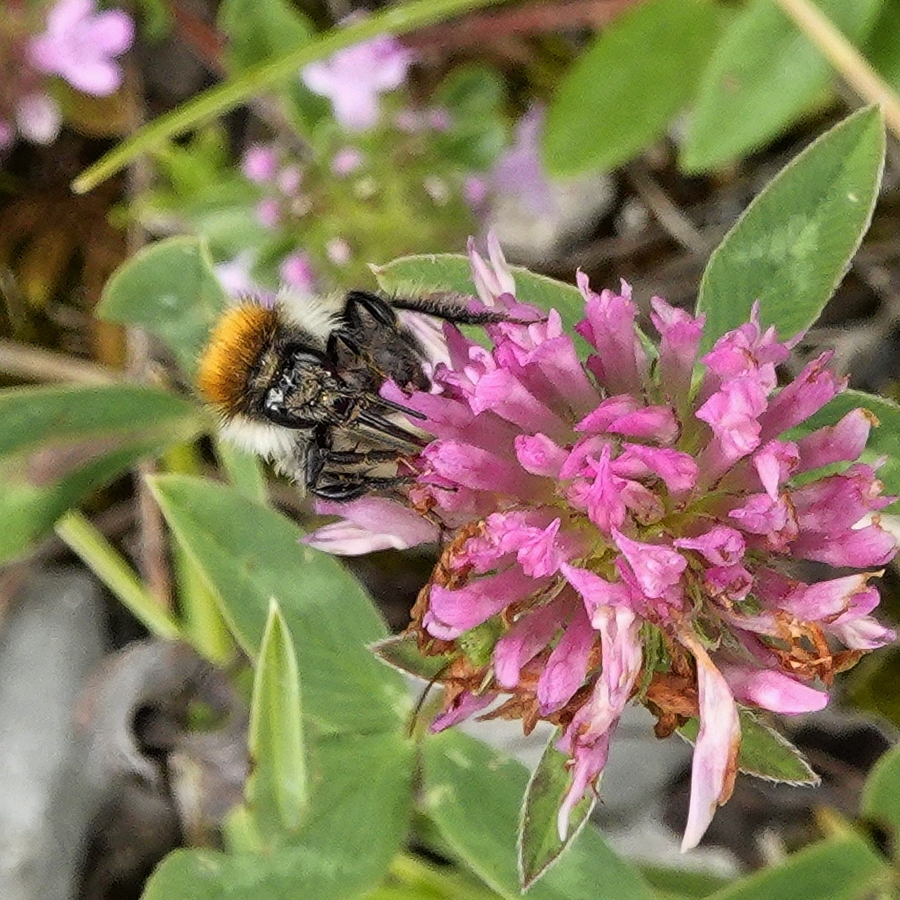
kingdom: Animalia
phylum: Arthropoda
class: Insecta
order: Hymenoptera
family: Apidae
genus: Bombus
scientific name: Bombus humilis
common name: Brown-banded carder-bee
